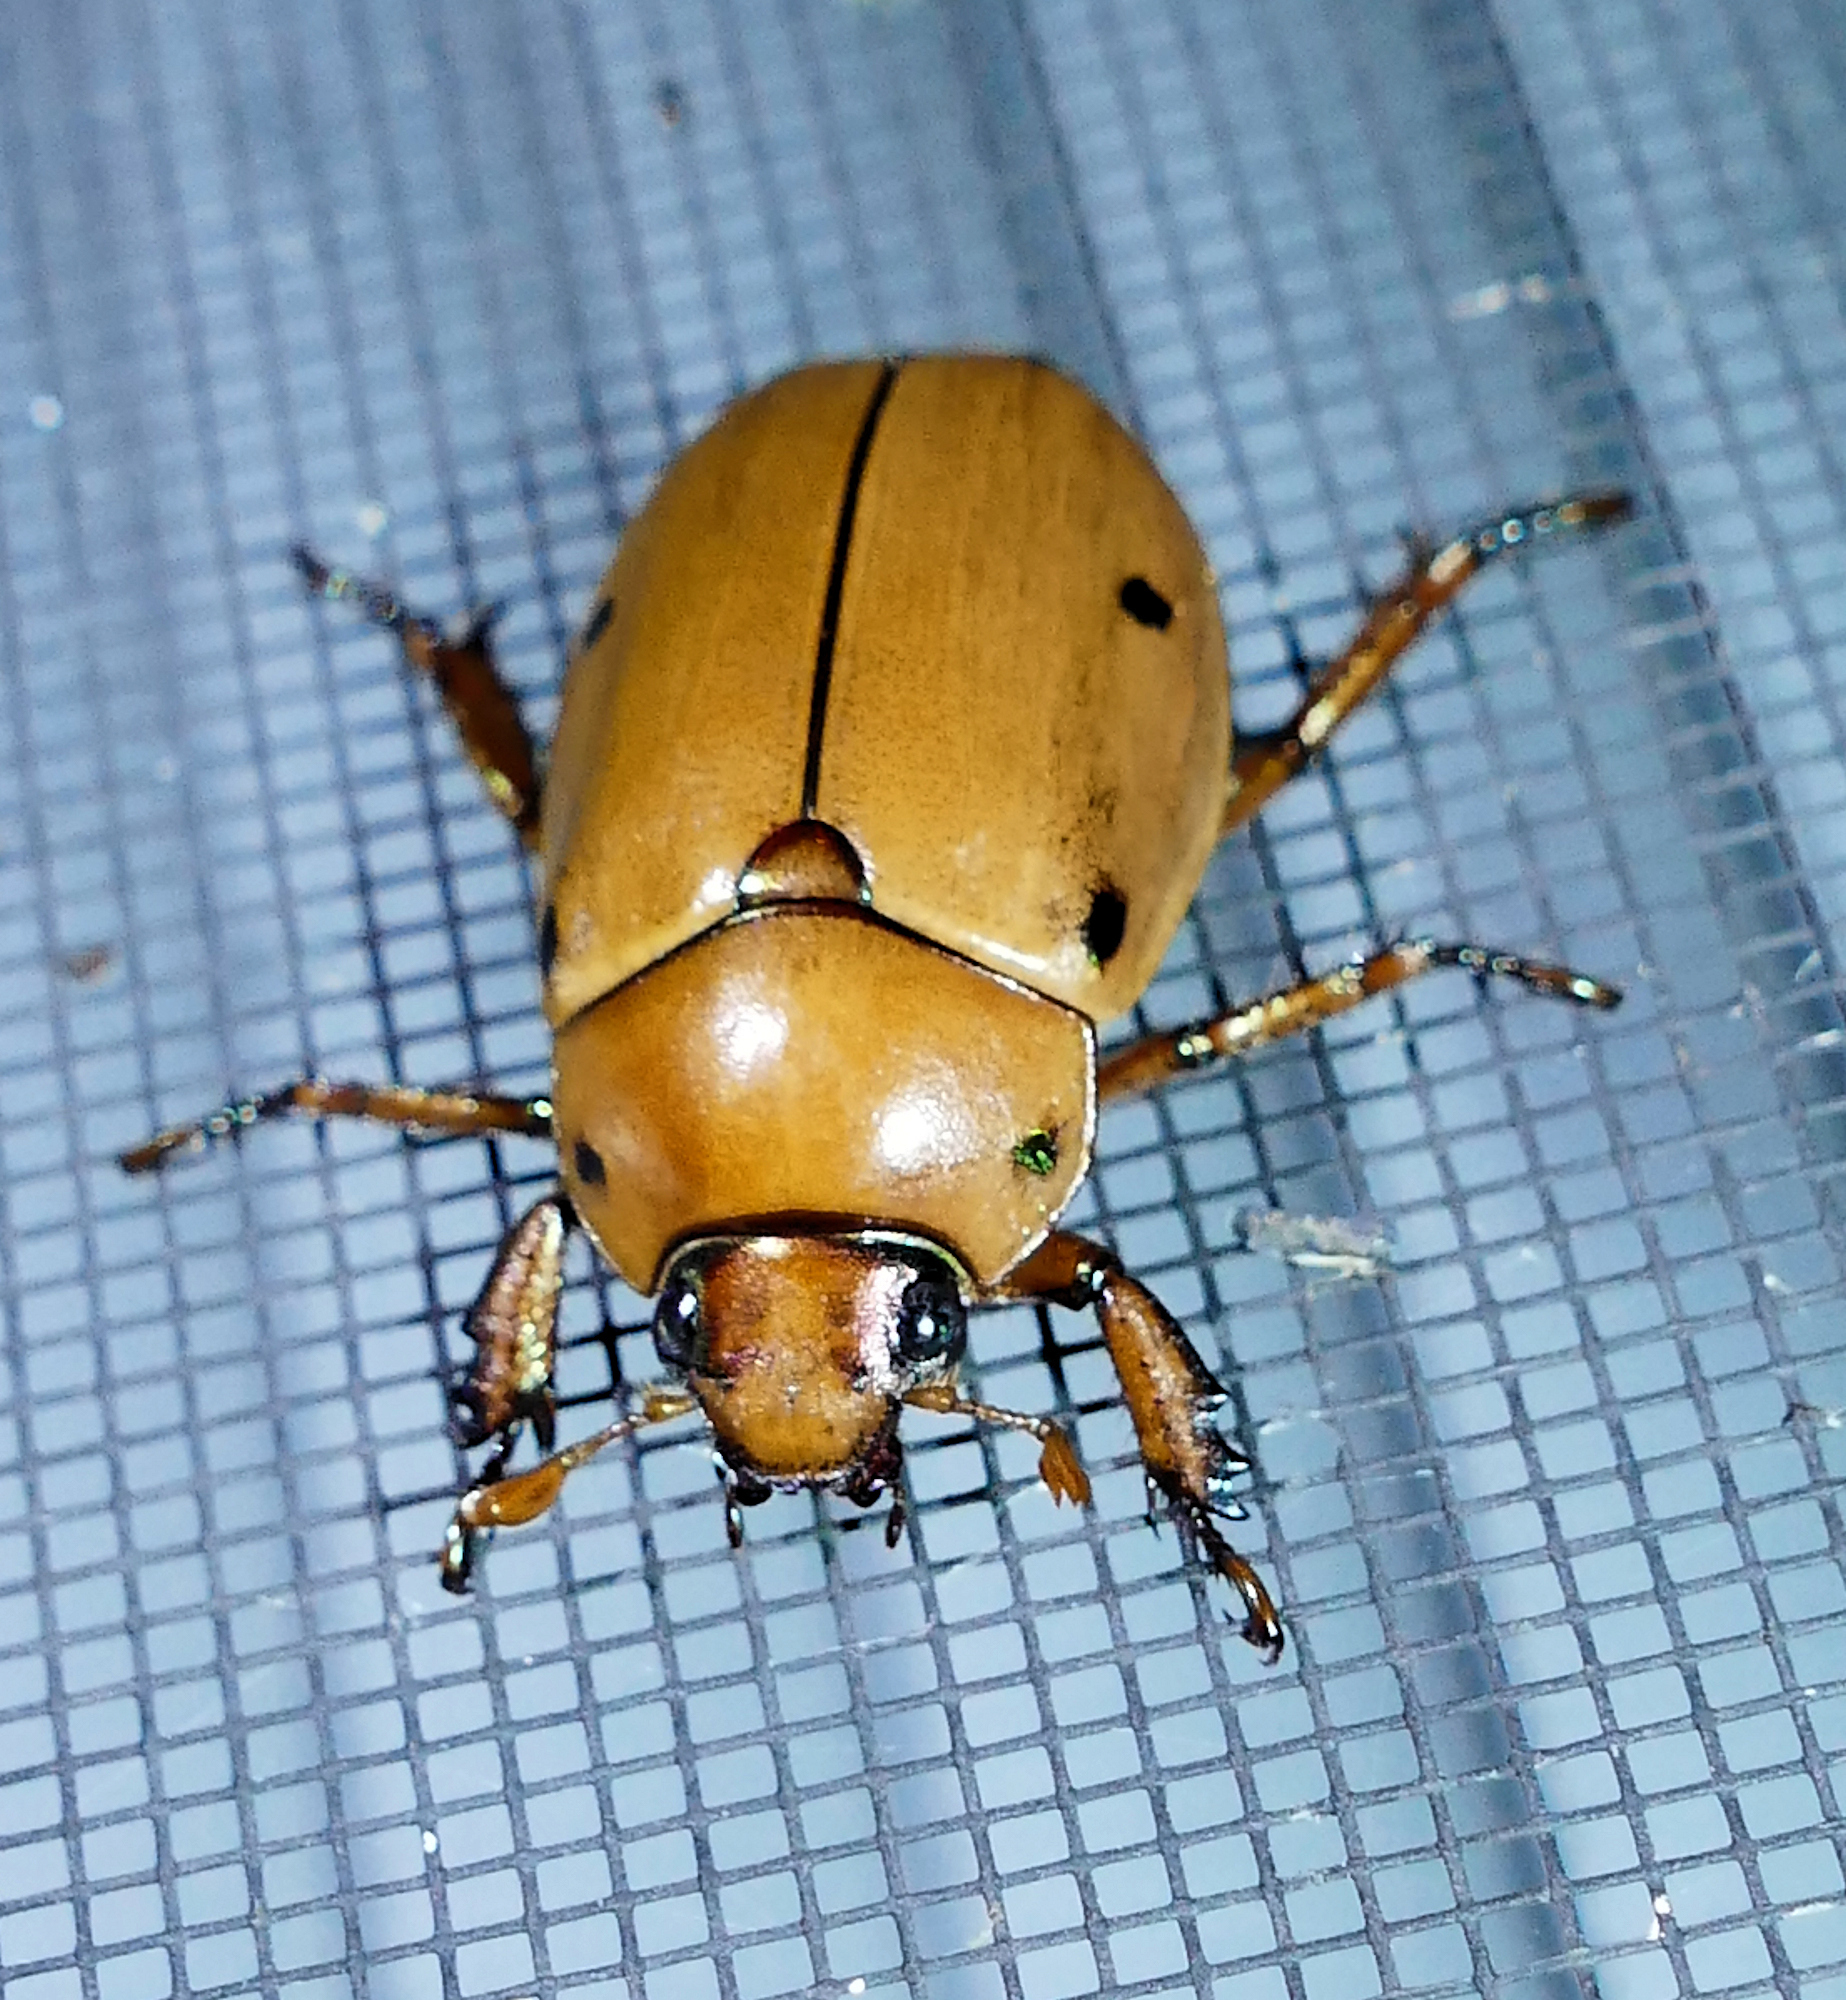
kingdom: Animalia
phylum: Arthropoda
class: Insecta
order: Coleoptera
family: Scarabaeidae
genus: Pelidnota
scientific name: Pelidnota punctata
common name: Grapevine beetle
